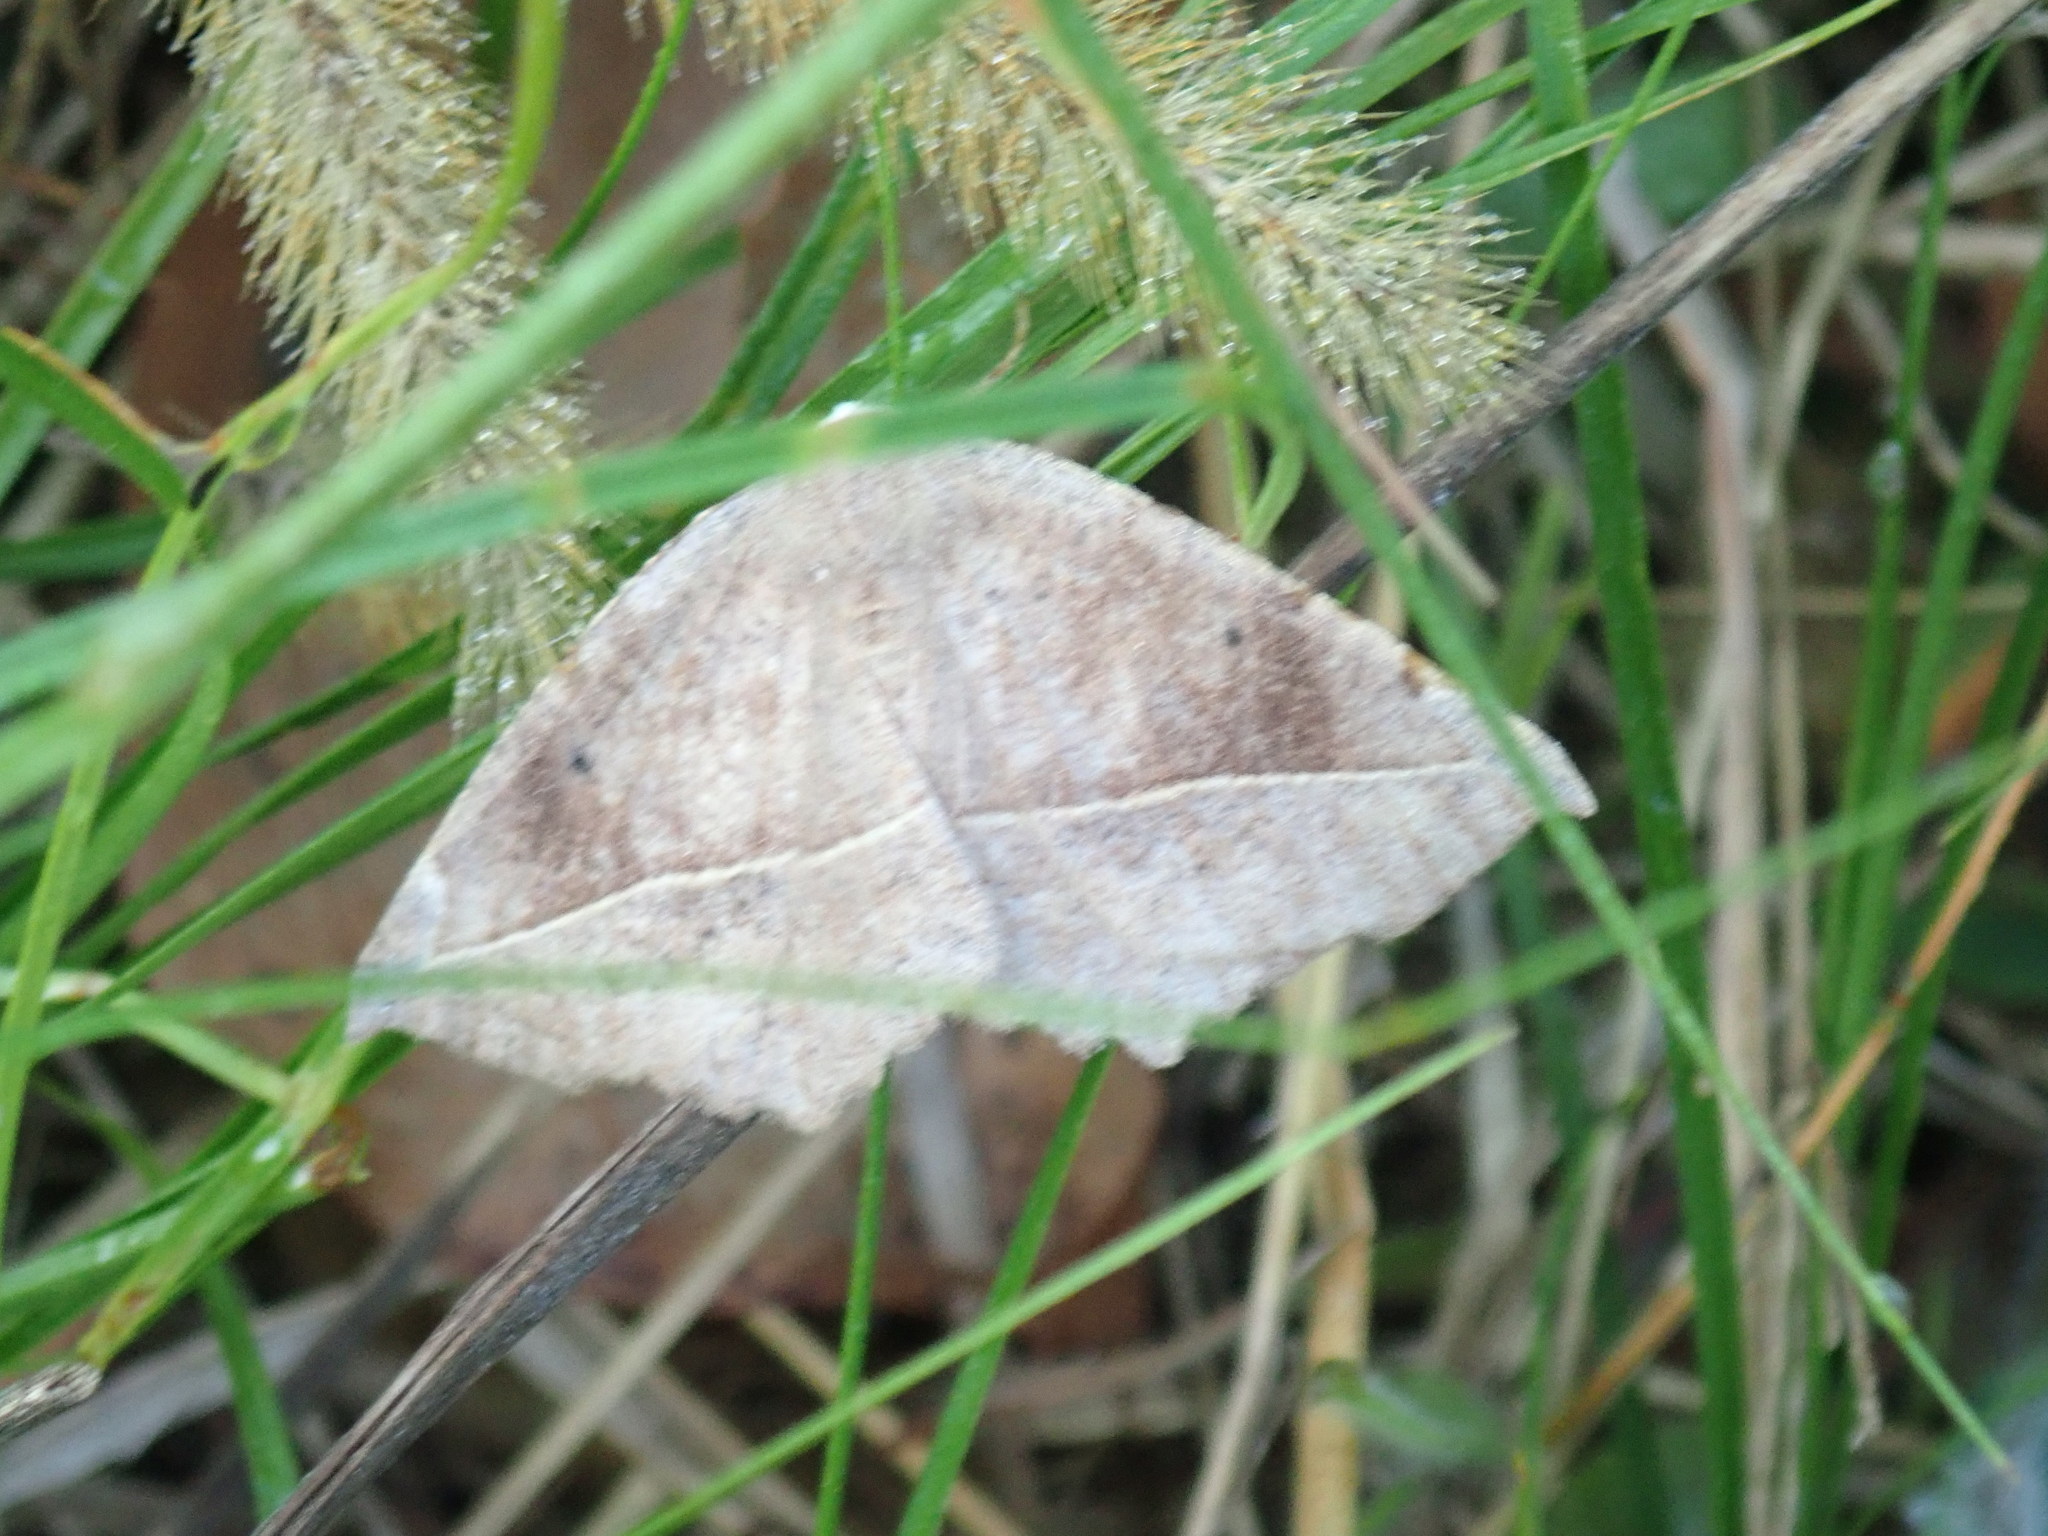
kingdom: Animalia
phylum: Arthropoda
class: Insecta
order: Lepidoptera
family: Geometridae
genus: Eutrapela
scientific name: Eutrapela clemataria
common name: Curved-toothed geometer
